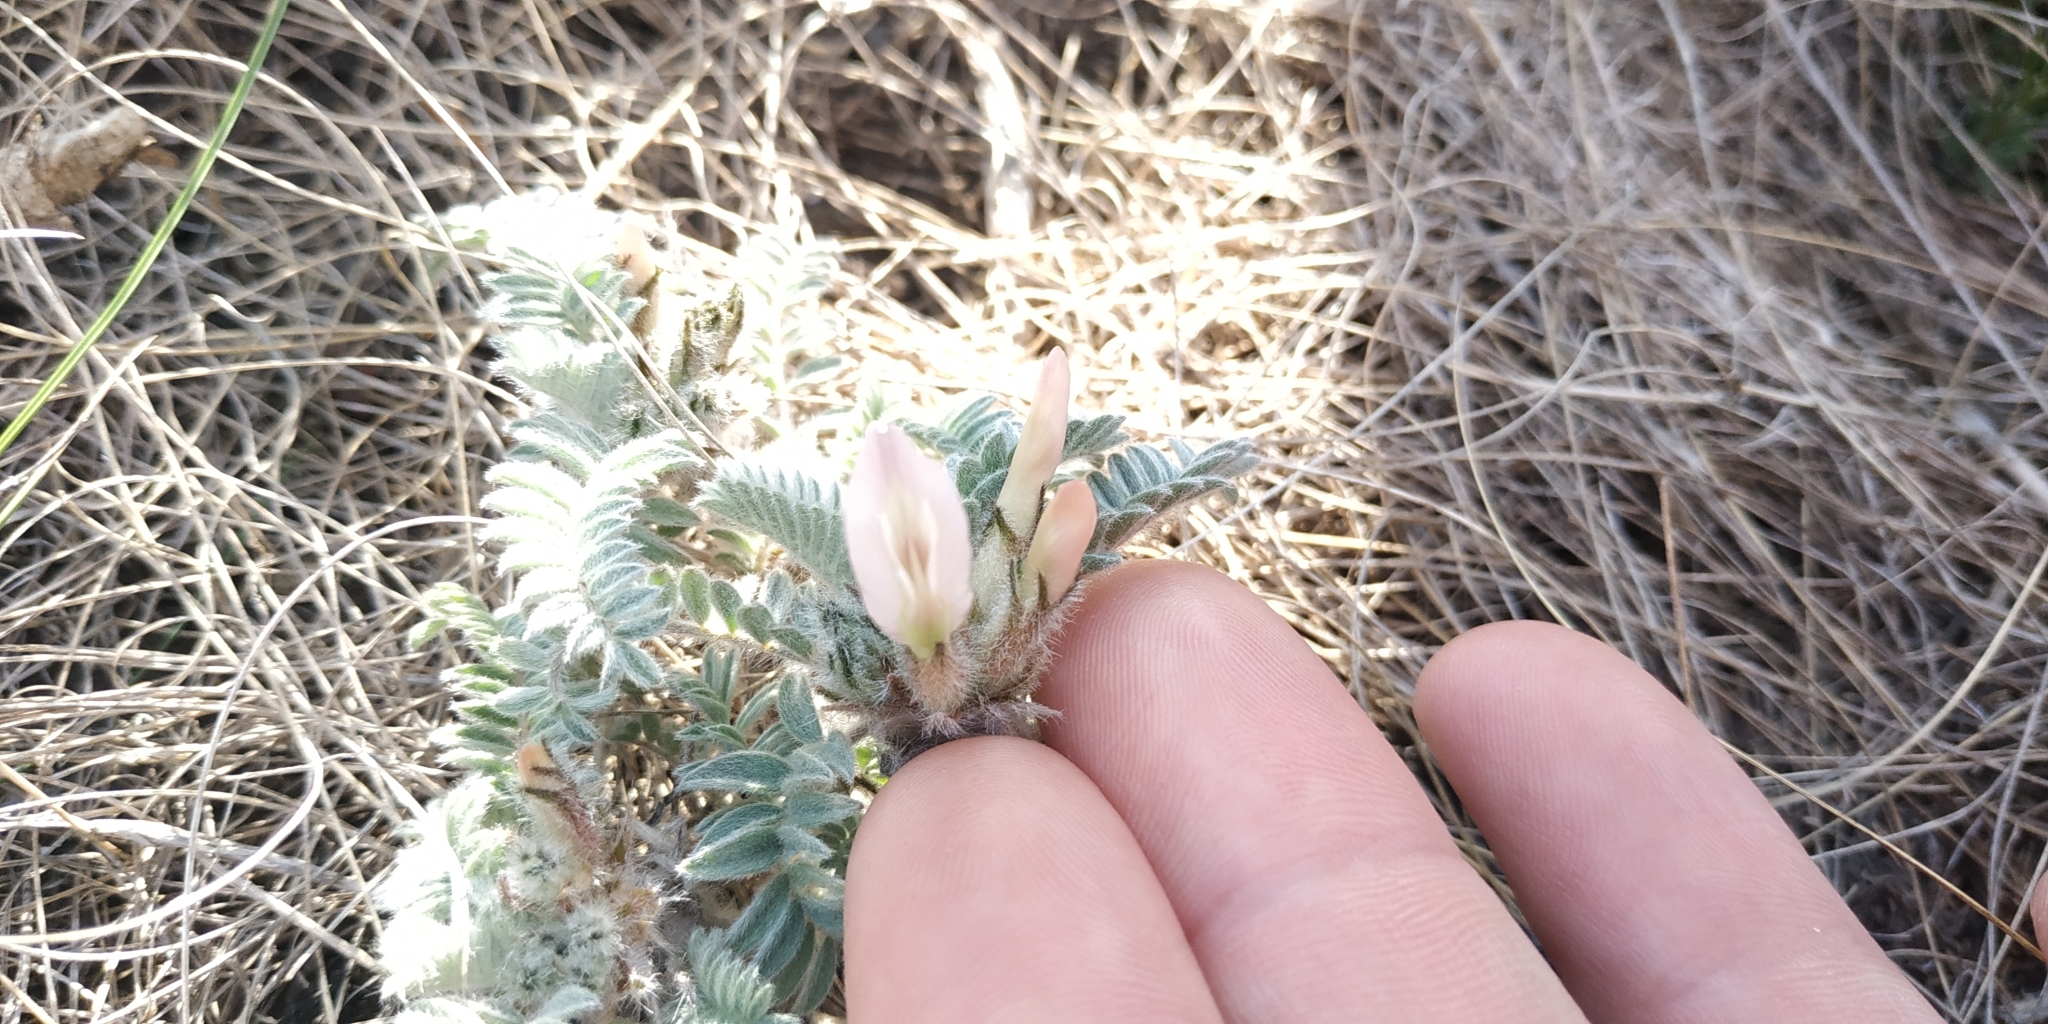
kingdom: Plantae
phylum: Tracheophyta
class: Magnoliopsida
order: Fabales
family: Fabaceae
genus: Astragalus
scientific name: Astragalus testiculatus
